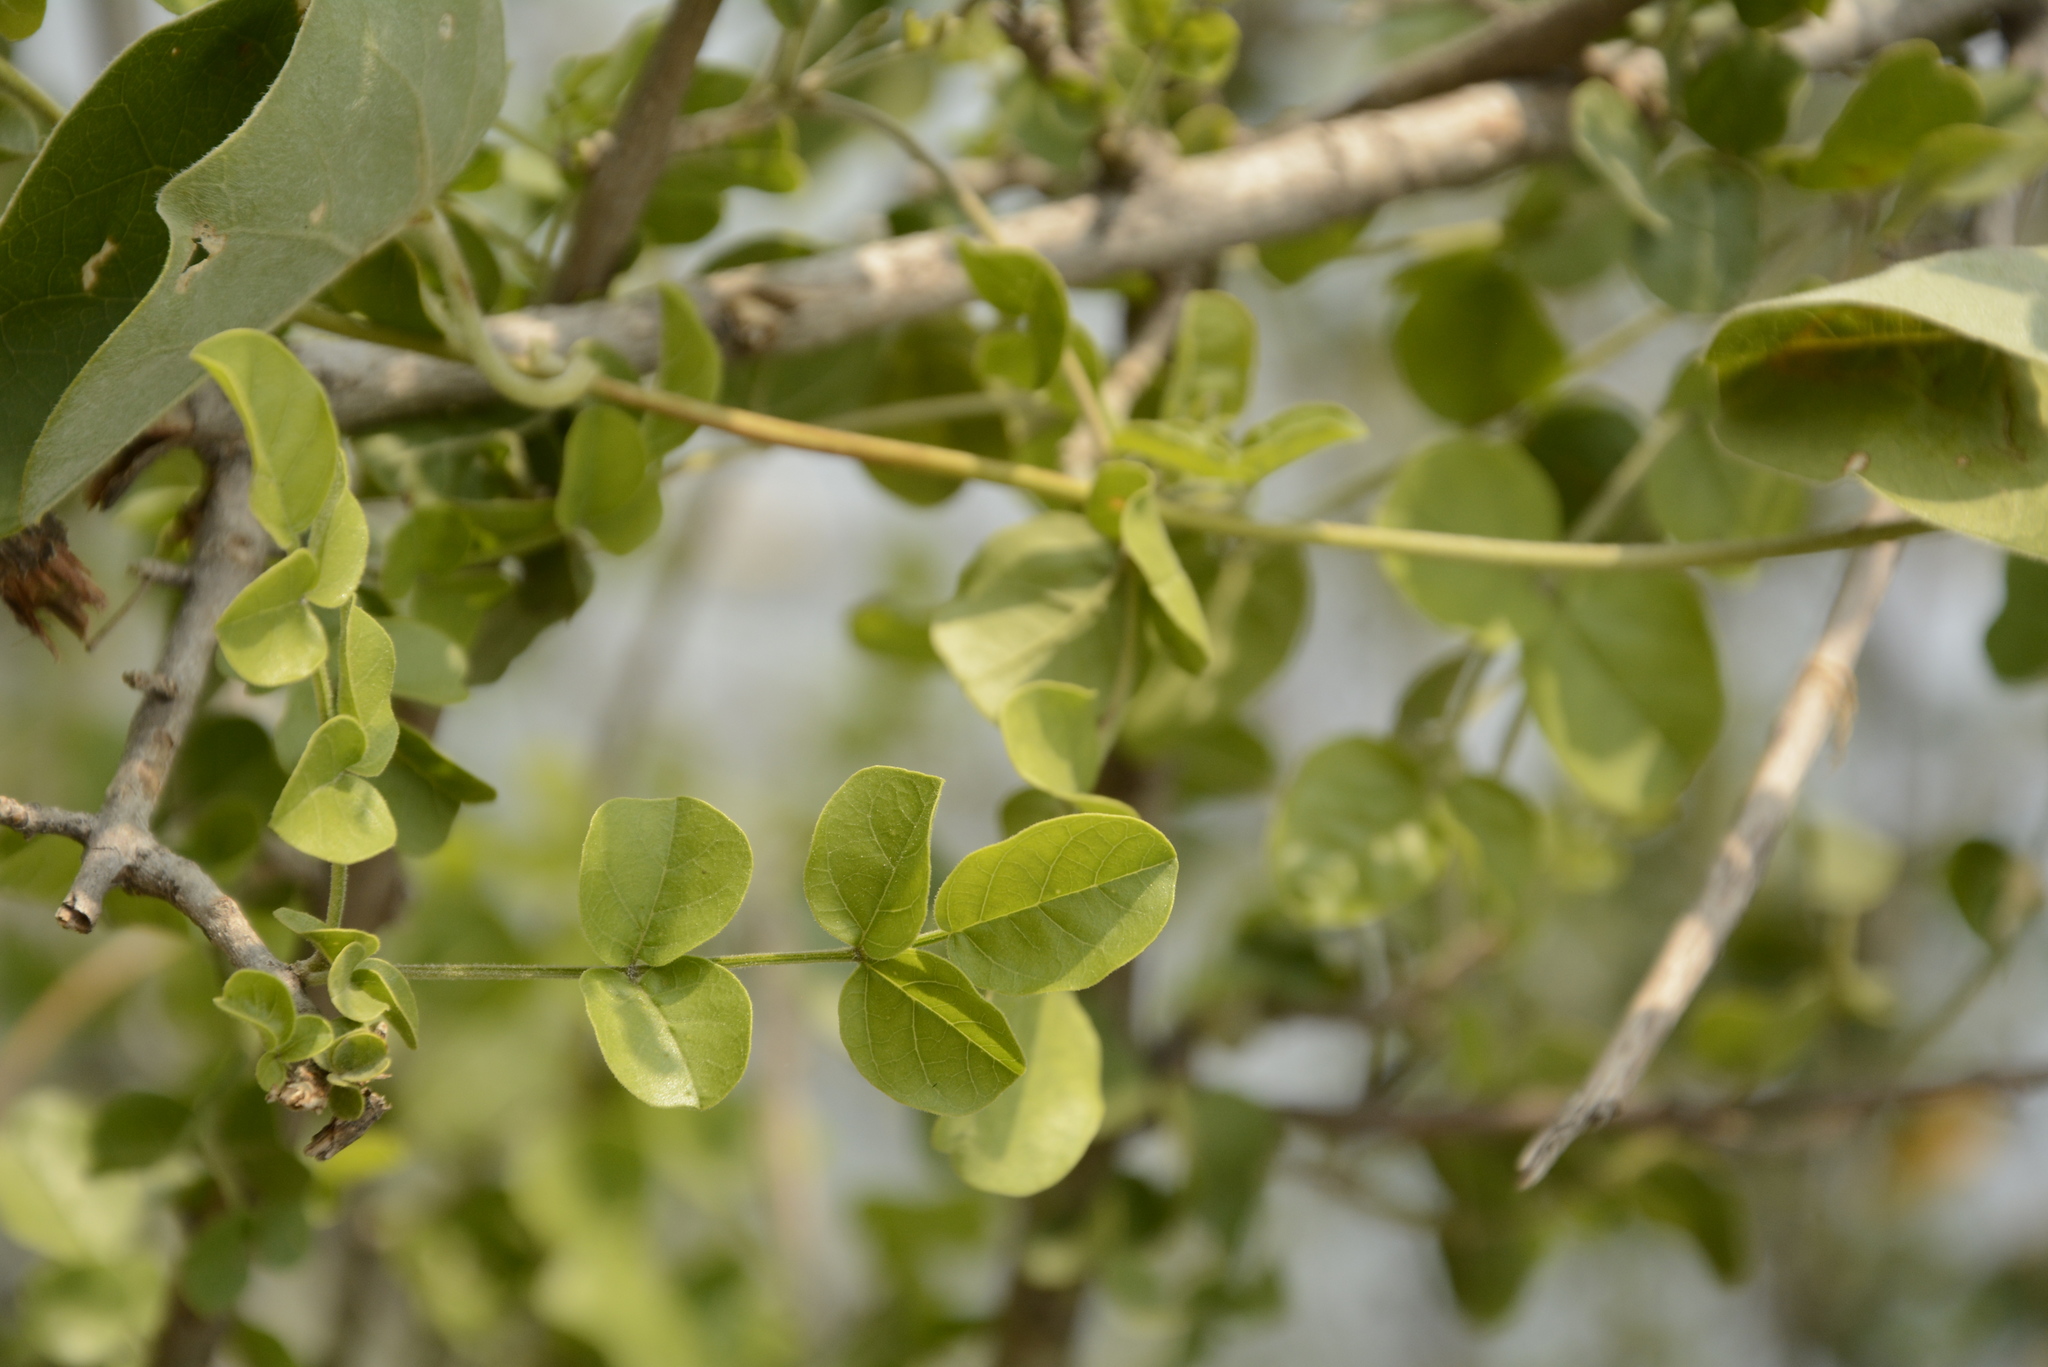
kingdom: Plantae
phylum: Tracheophyta
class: Magnoliopsida
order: Lamiales
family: Bignoniaceae
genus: Dolichandrone
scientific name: Dolichandrone falcata
